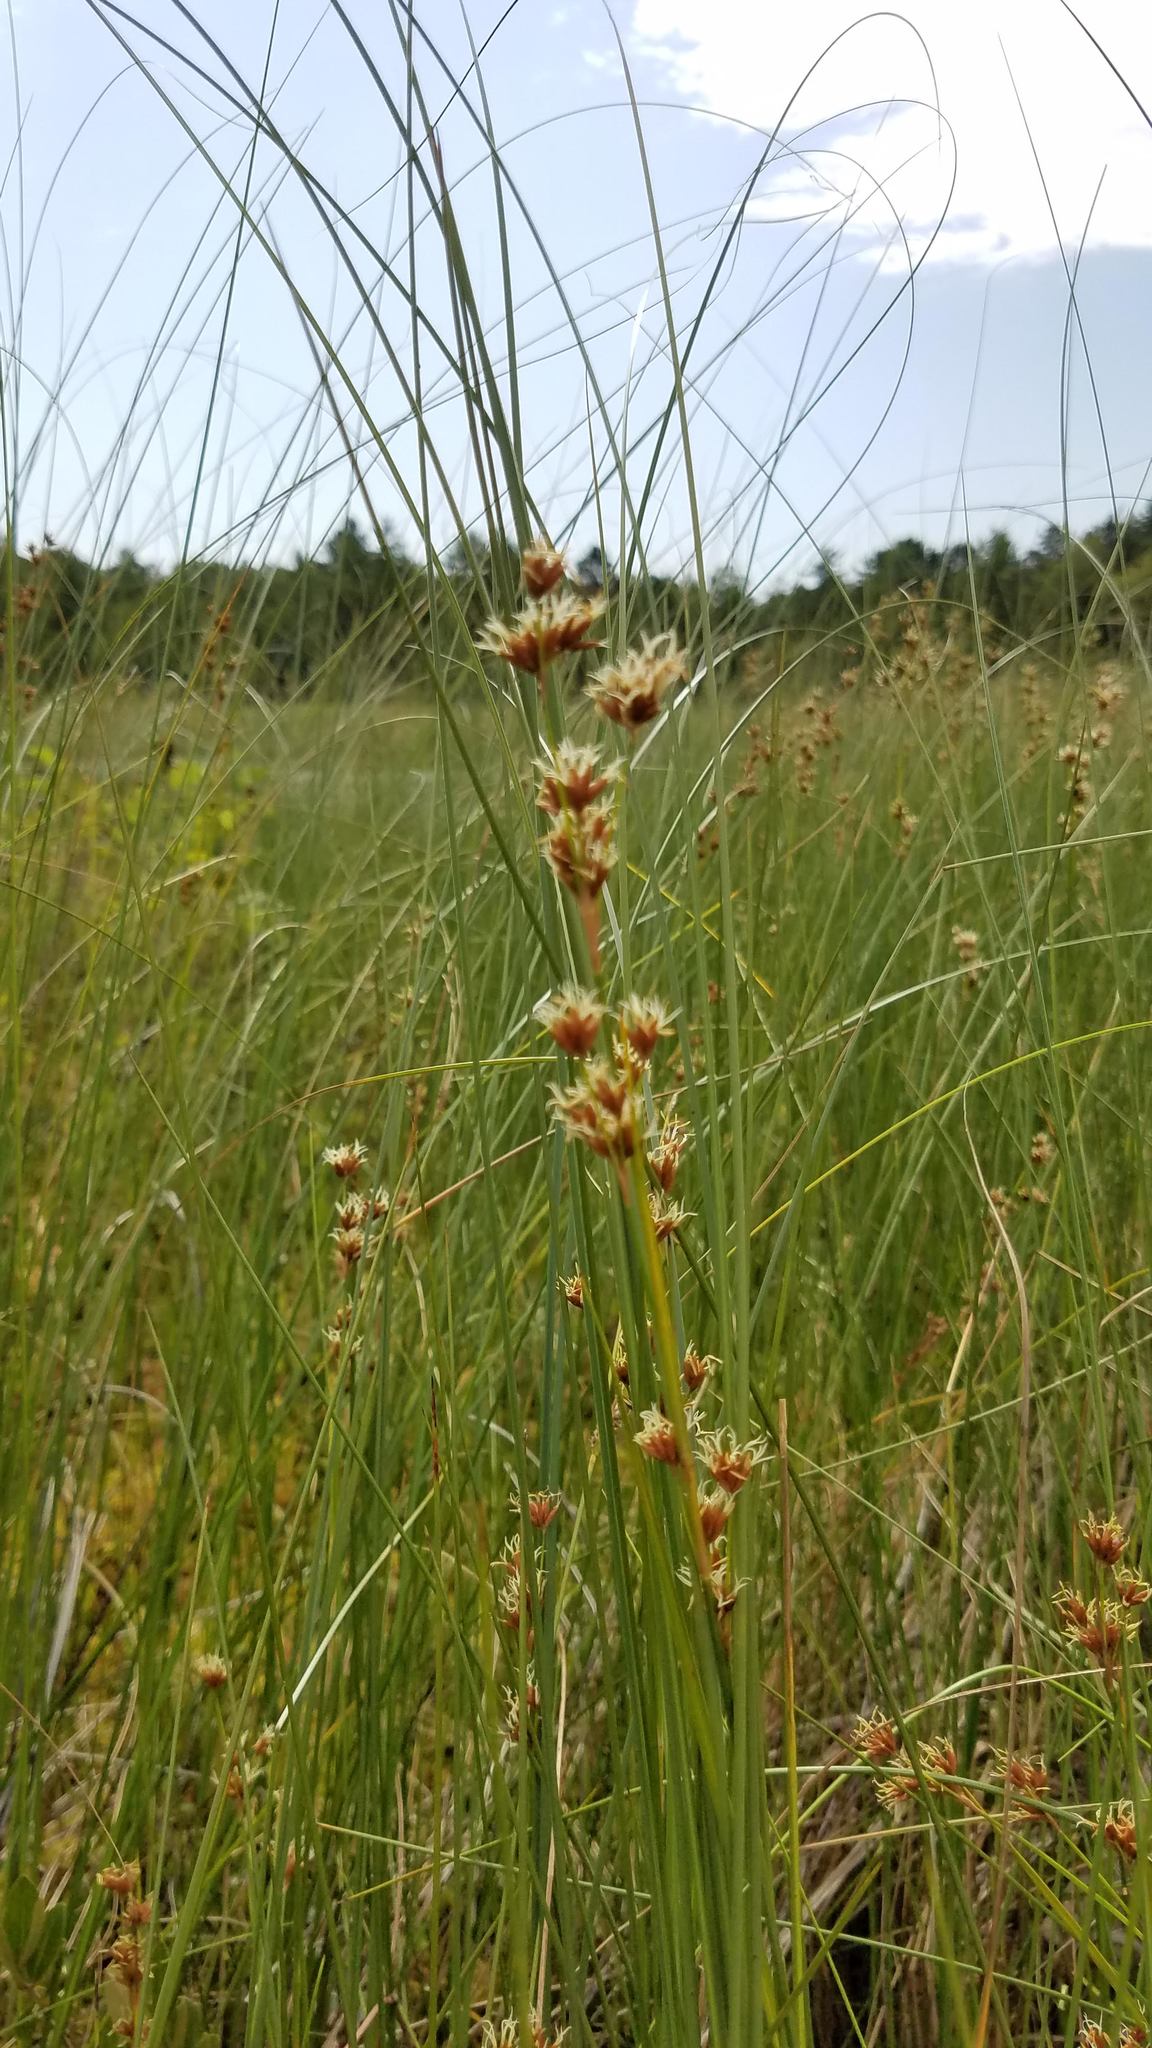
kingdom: Plantae
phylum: Tracheophyta
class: Liliopsida
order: Poales
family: Cyperaceae
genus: Cladium
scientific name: Cladium mariscoides
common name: Smooth sawgrass
